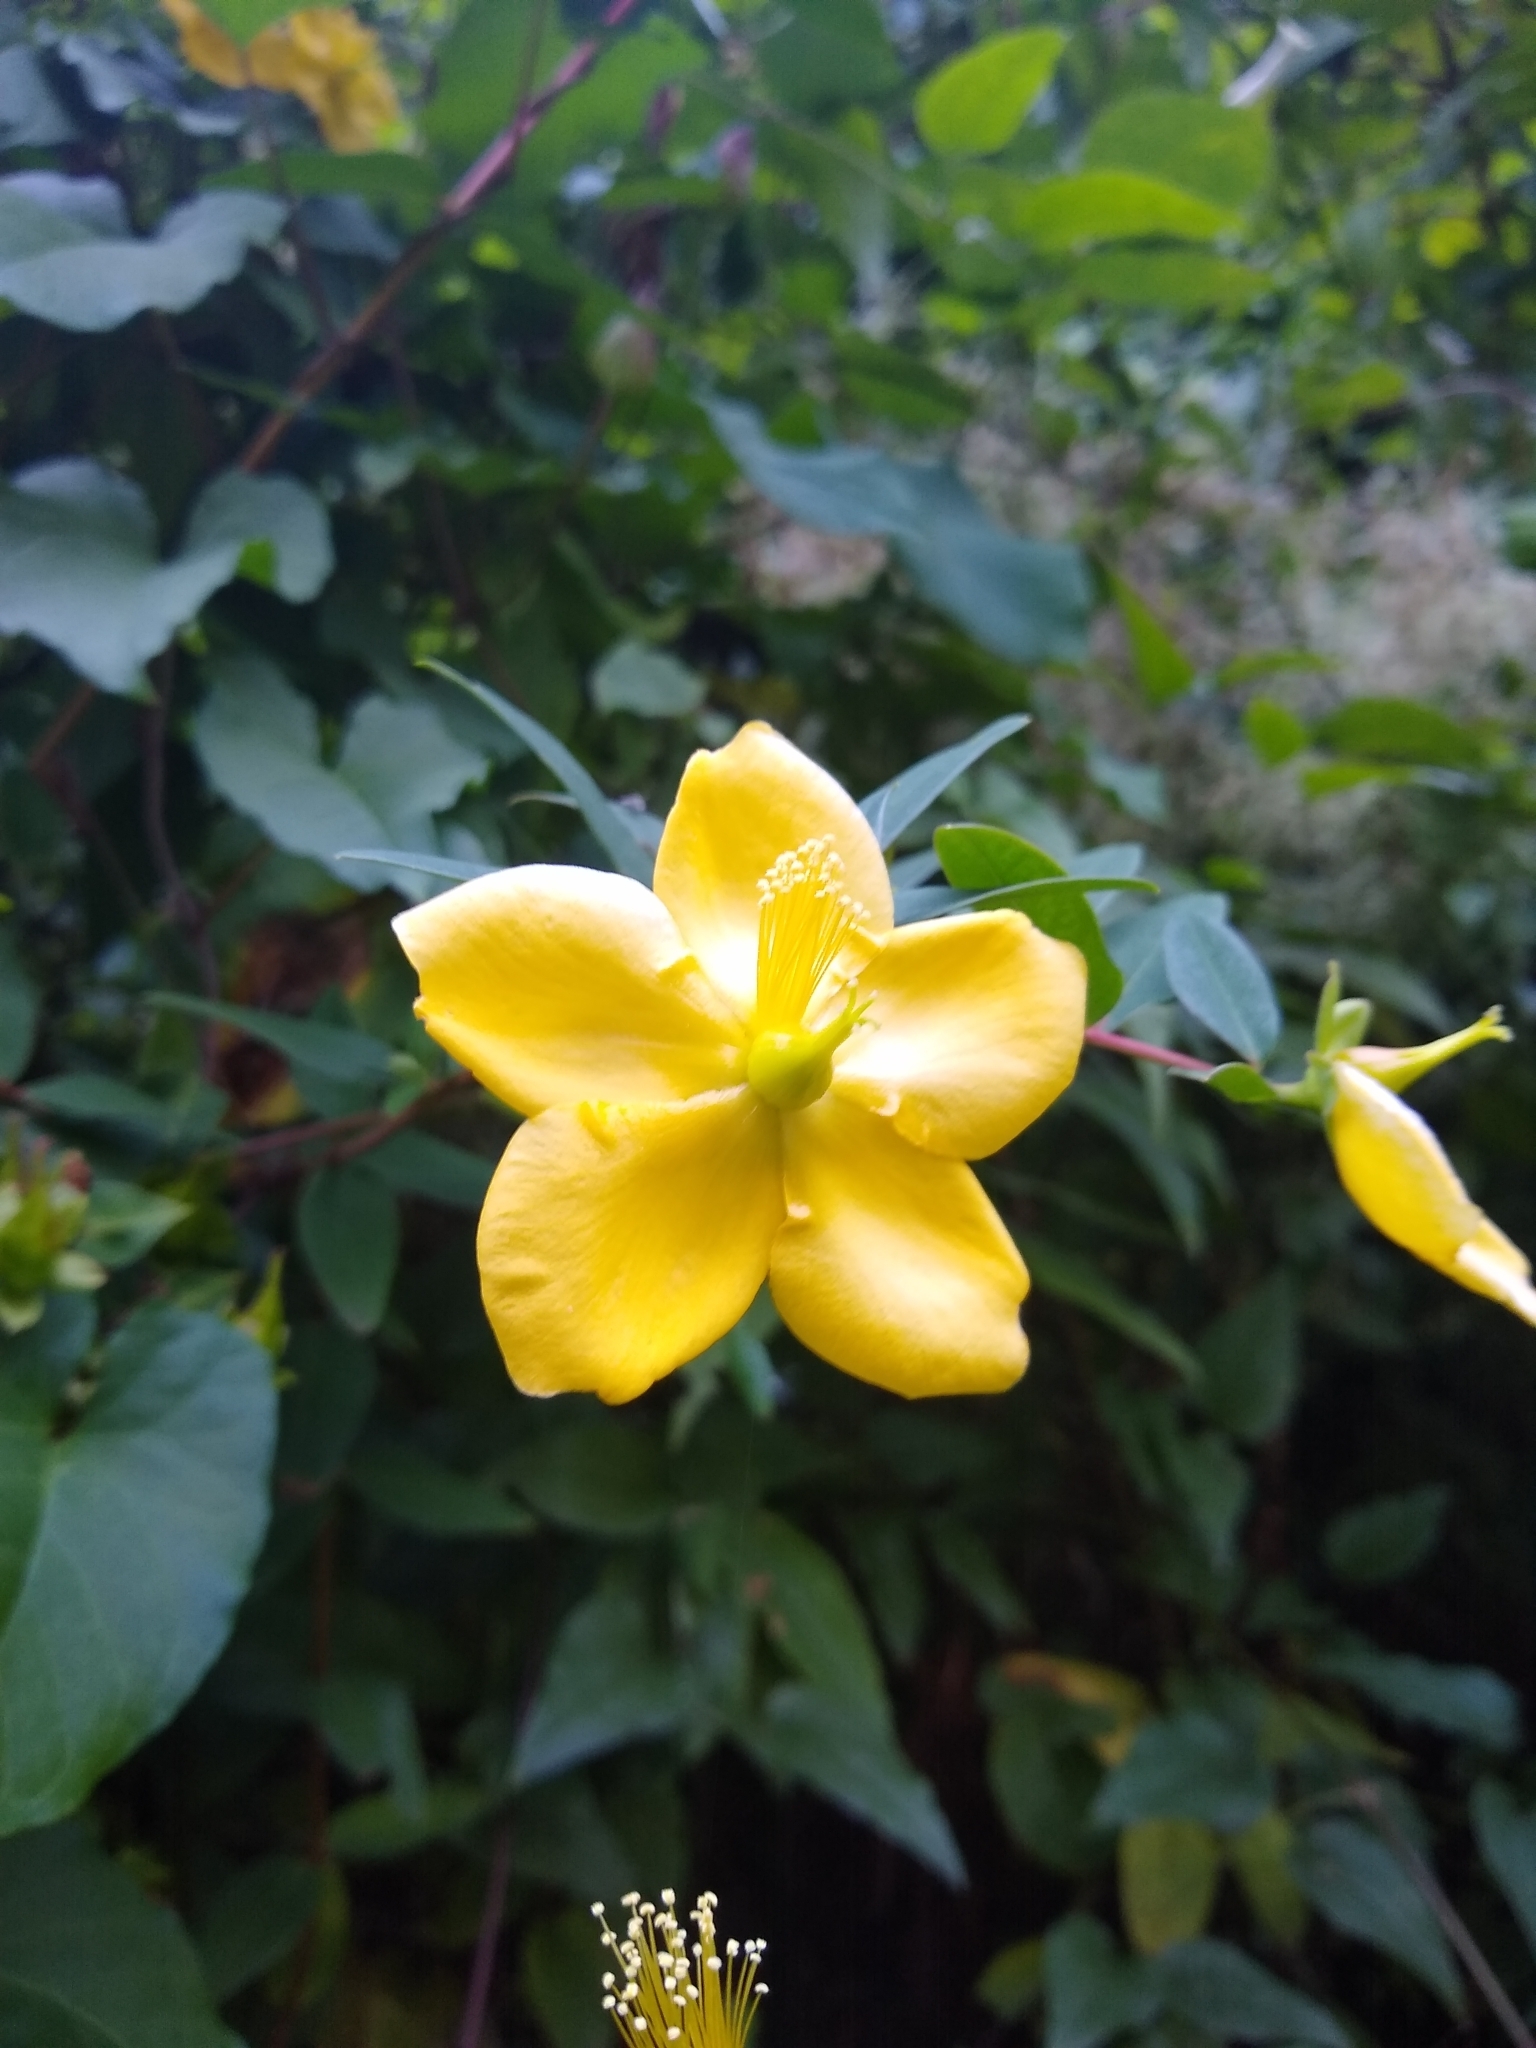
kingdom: Plantae
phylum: Tracheophyta
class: Magnoliopsida
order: Malpighiales
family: Hypericaceae
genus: Hypericum
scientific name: Hypericum calycinum
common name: Rose-of-sharon
